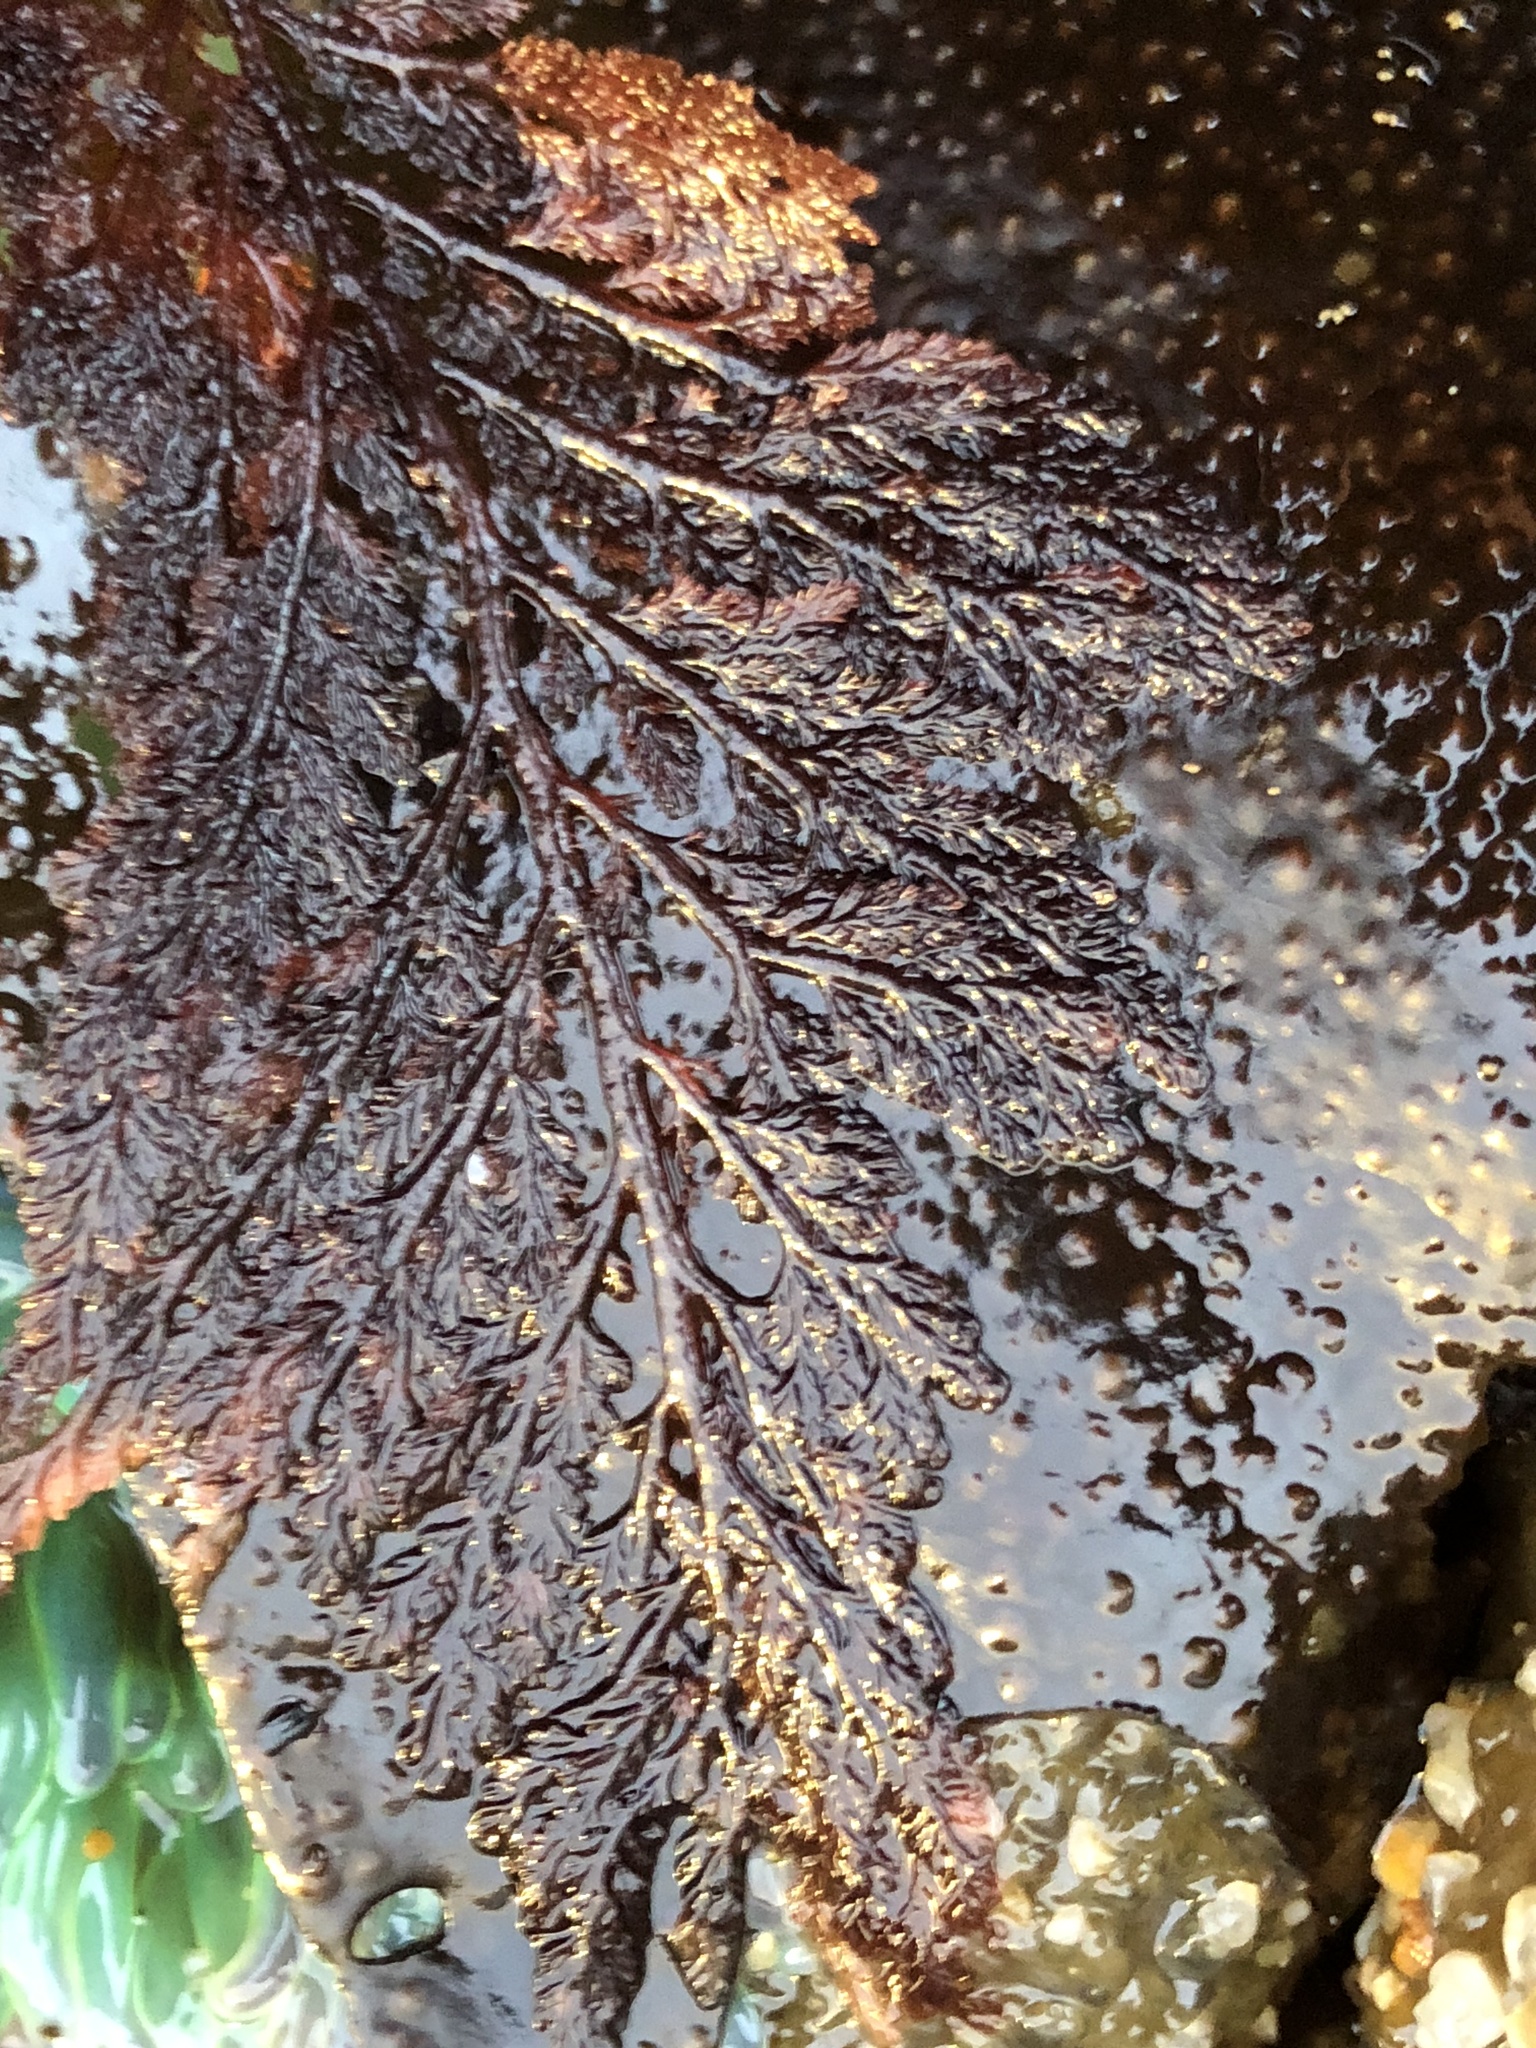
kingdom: Plantae
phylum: Rhodophyta
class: Florideophyceae
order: Ceramiales
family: Ceramiaceae
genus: Microcladia
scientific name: Microcladia coulteri
